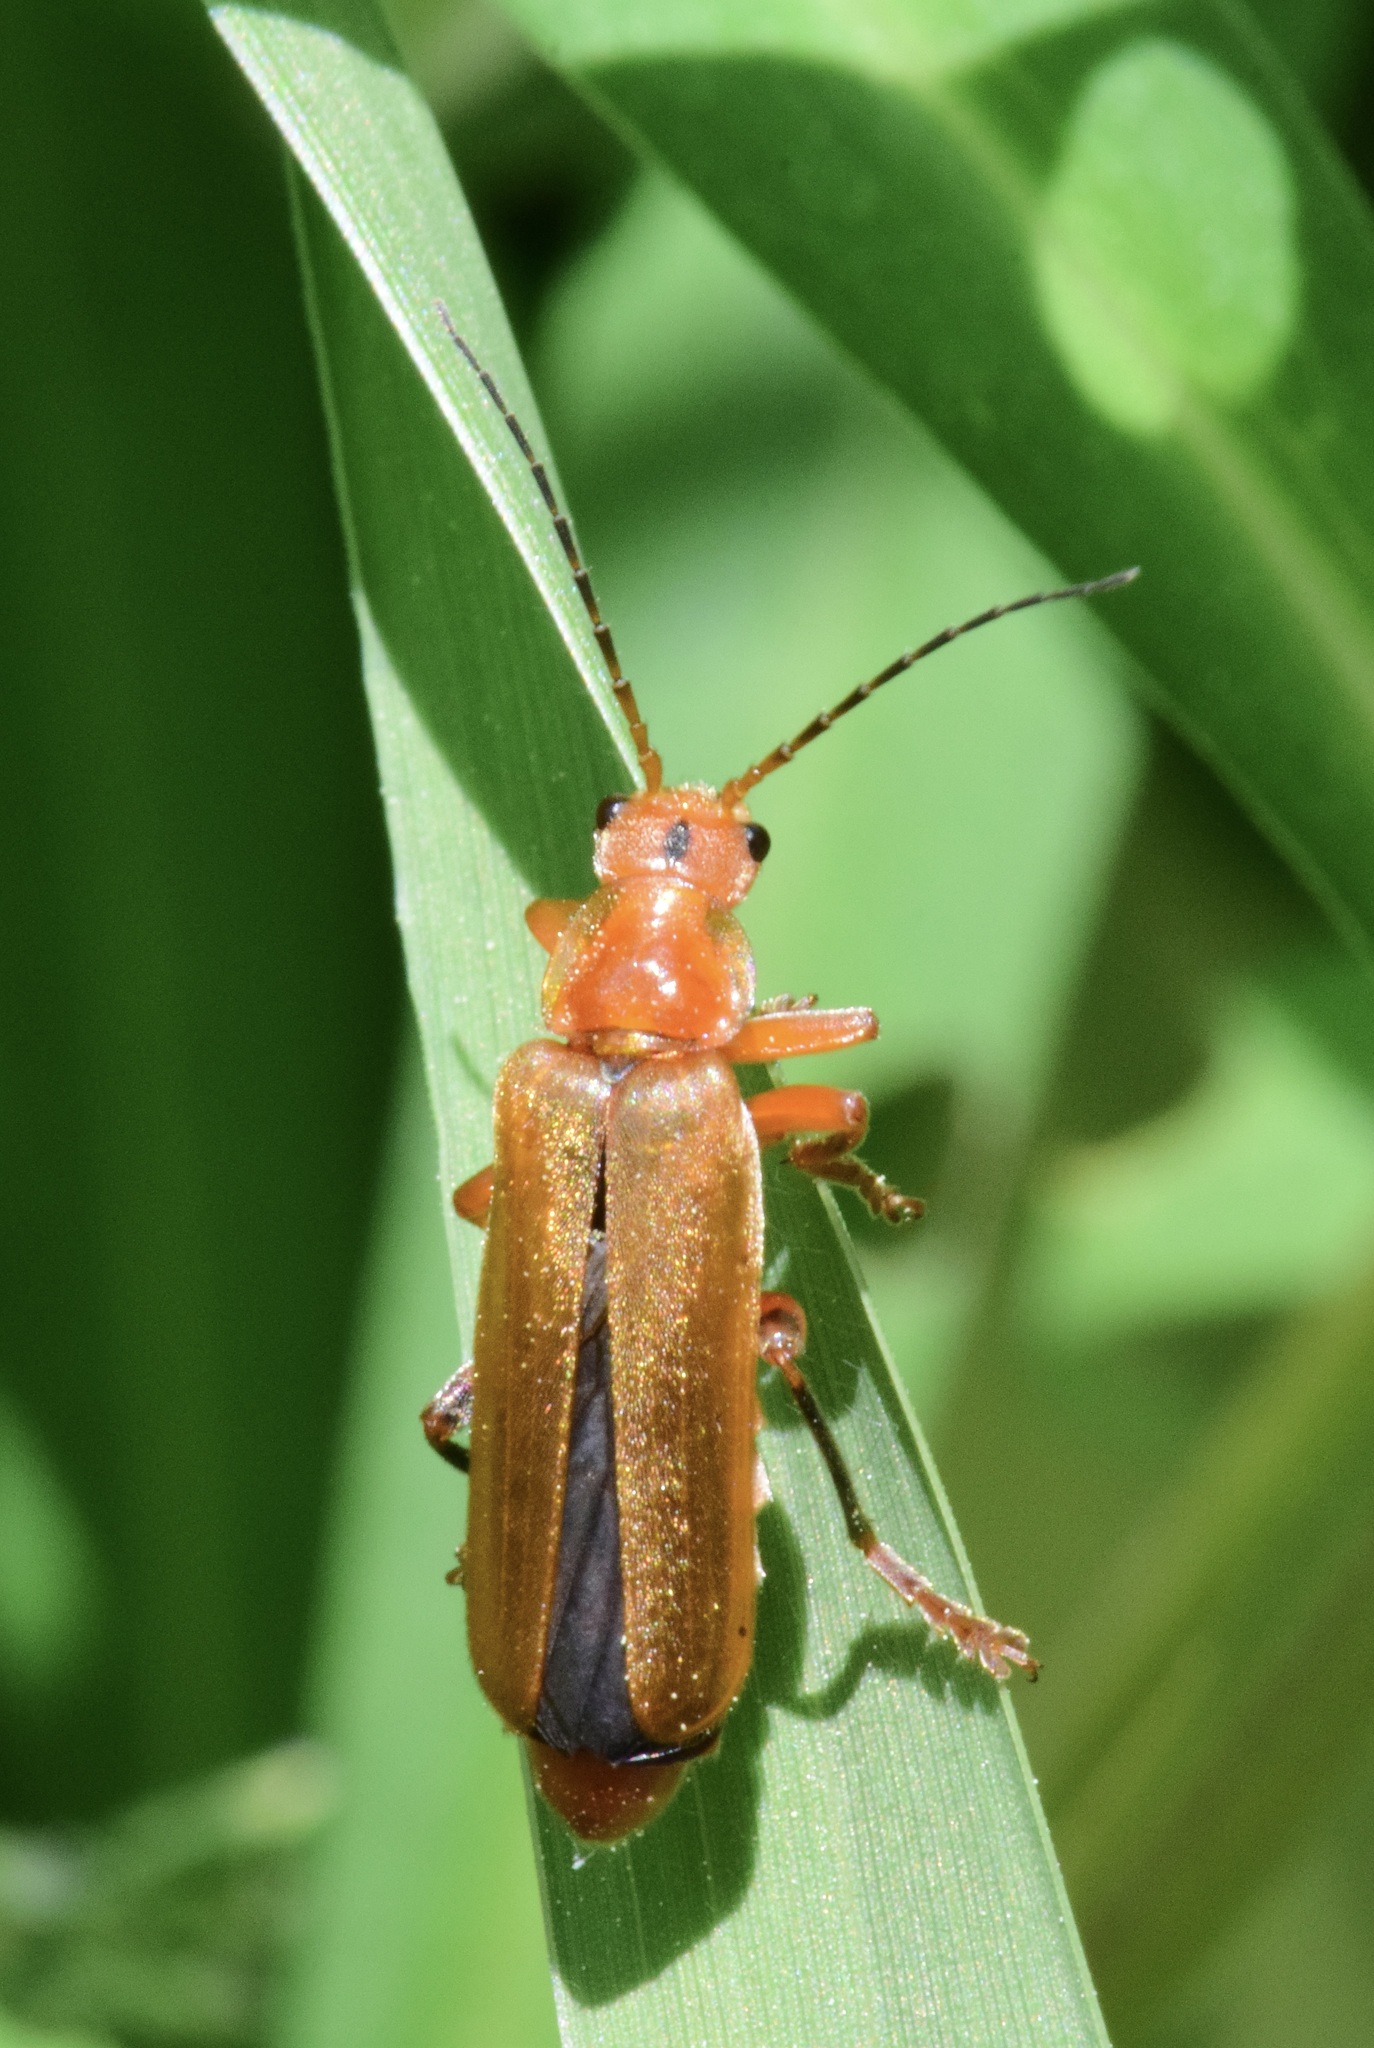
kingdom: Animalia
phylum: Arthropoda
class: Insecta
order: Coleoptera
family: Cantharidae
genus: Cantharis
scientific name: Cantharis livida
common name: Livid soldier beetle
